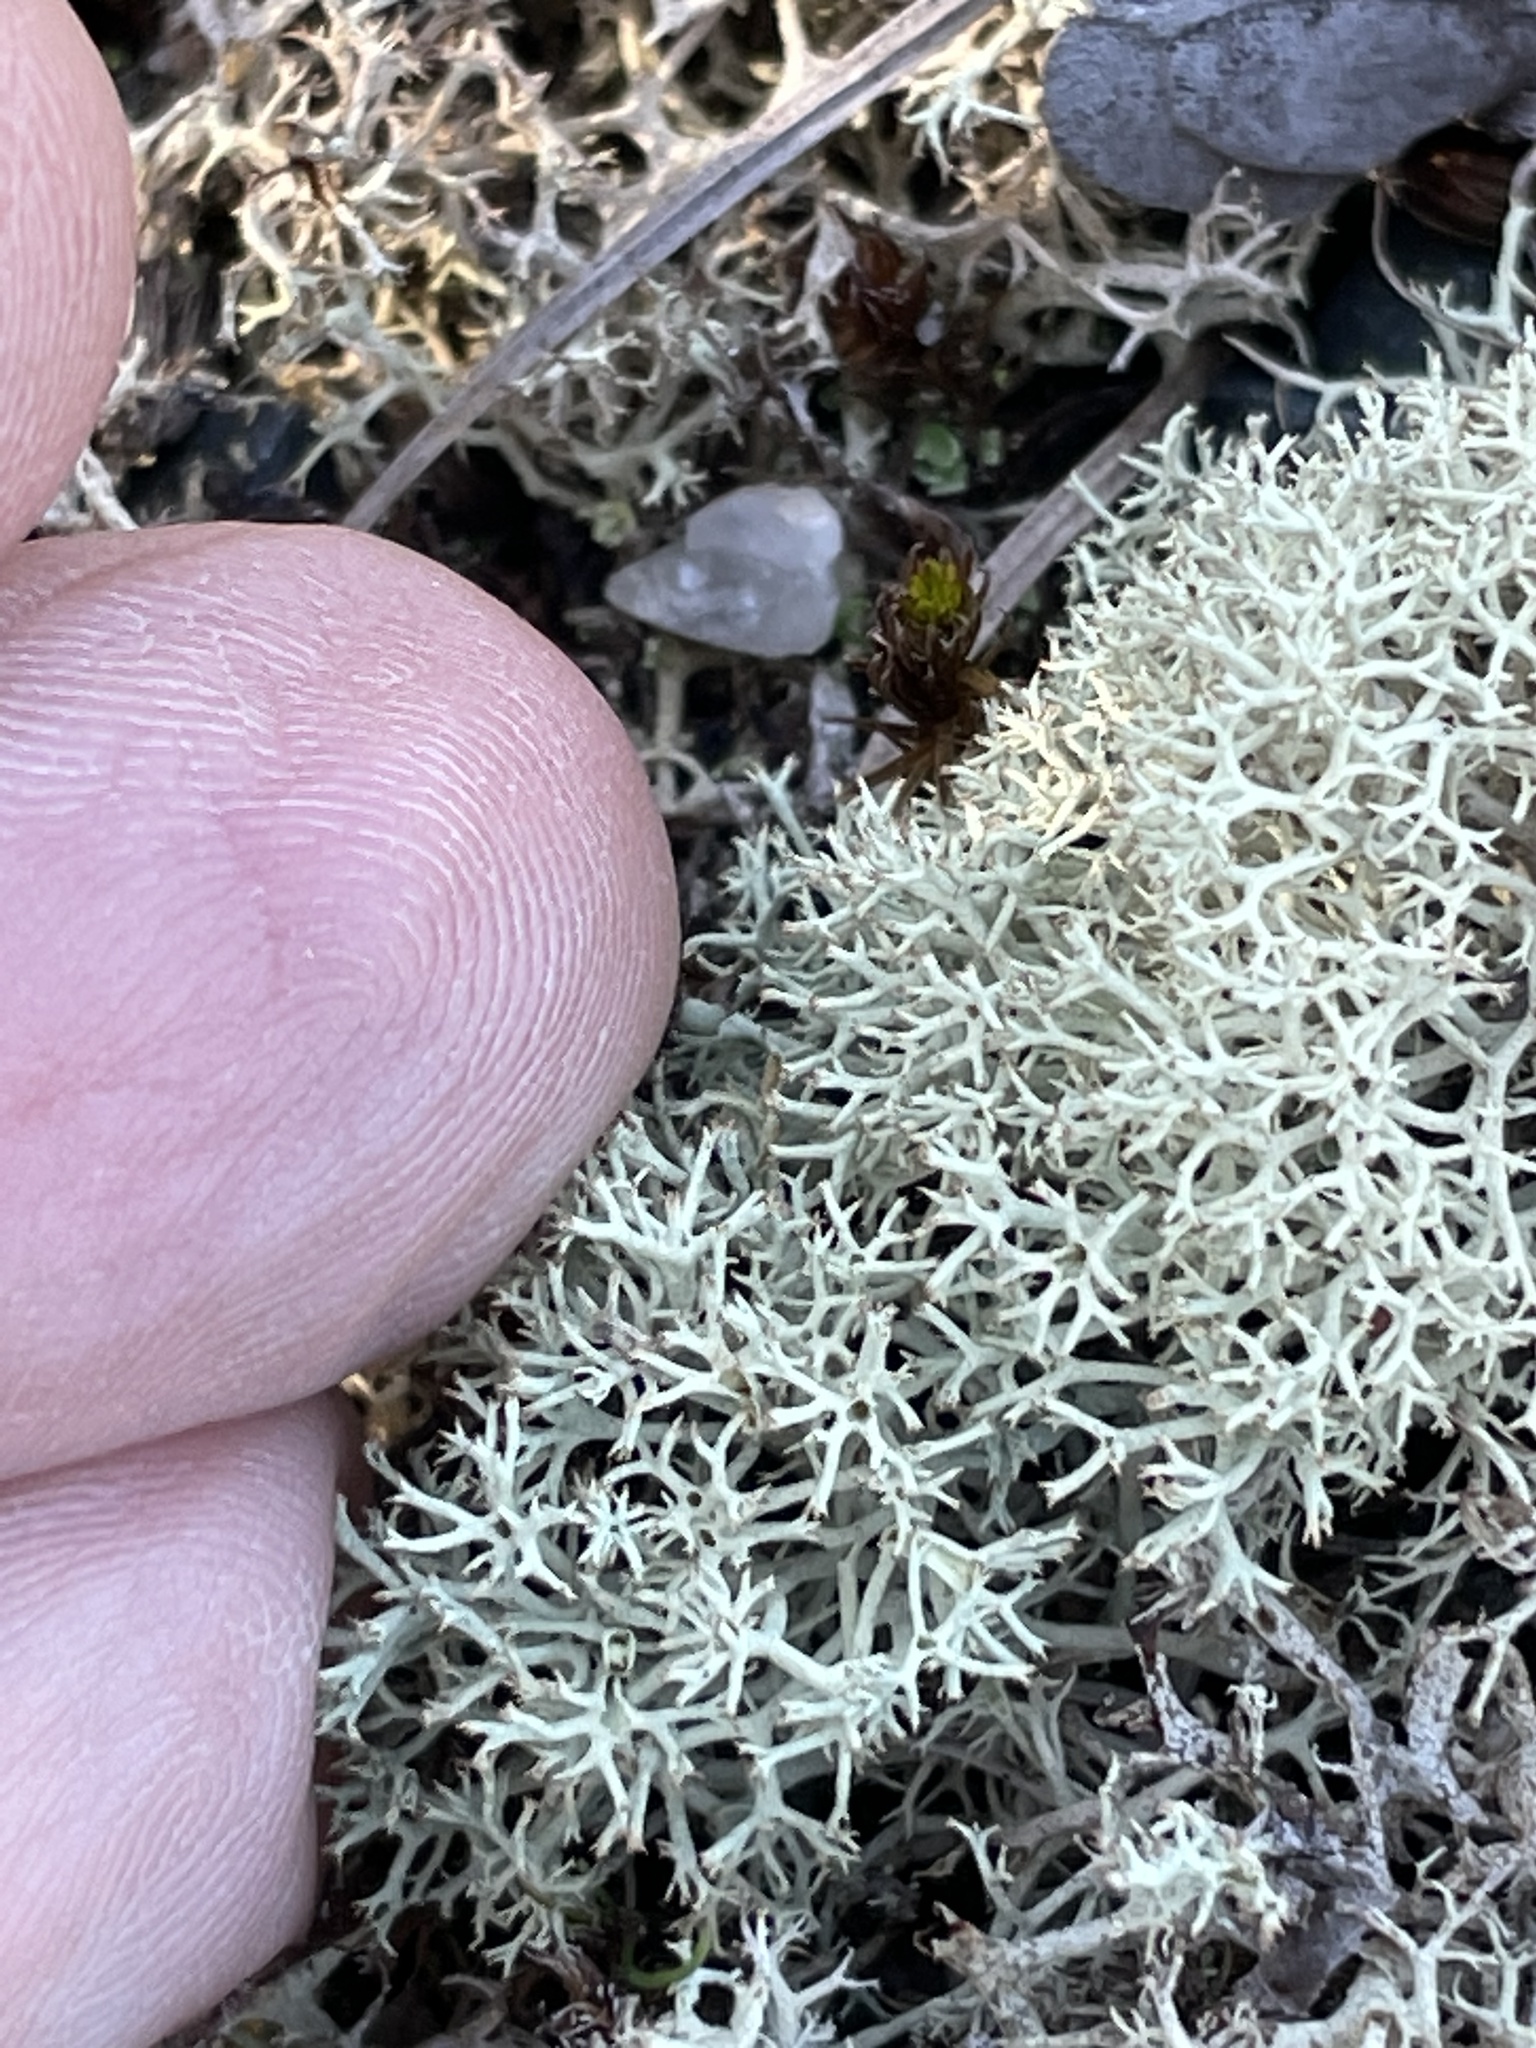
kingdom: Fungi
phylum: Ascomycota
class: Lecanoromycetes
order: Lecanorales
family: Cladoniaceae
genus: Cladonia
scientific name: Cladonia subtenuis
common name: Dixie reindeer lichen
